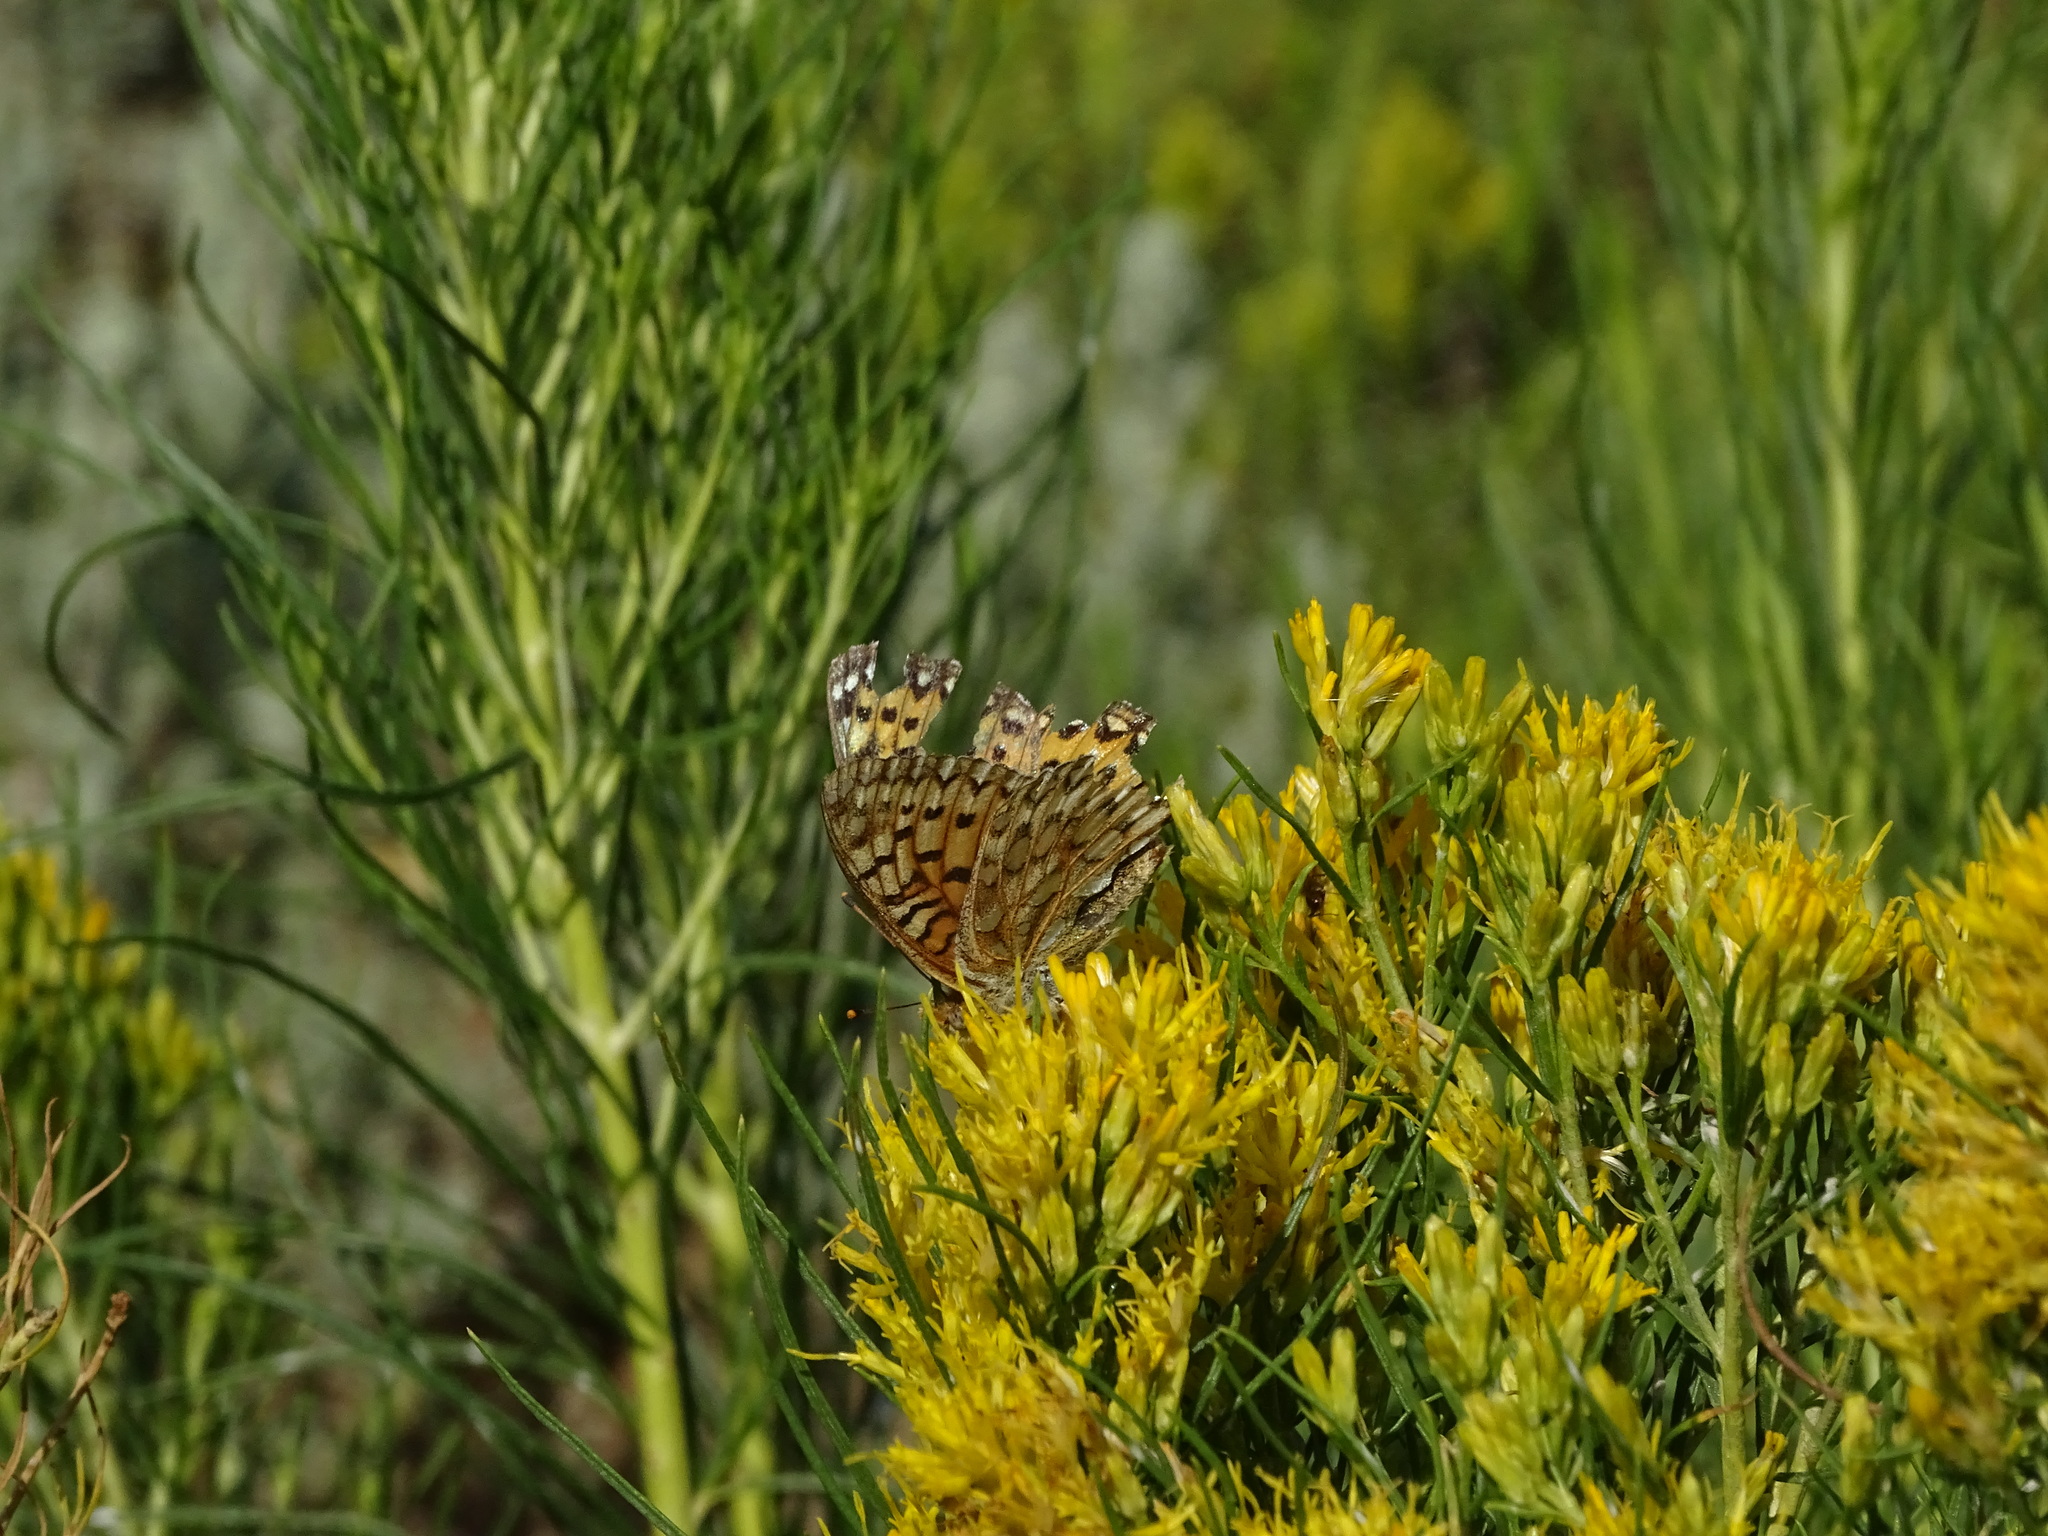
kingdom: Animalia
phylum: Arthropoda
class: Insecta
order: Lepidoptera
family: Nymphalidae
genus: Speyeria
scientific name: Speyeria mormonia
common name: Mormon fritillary
